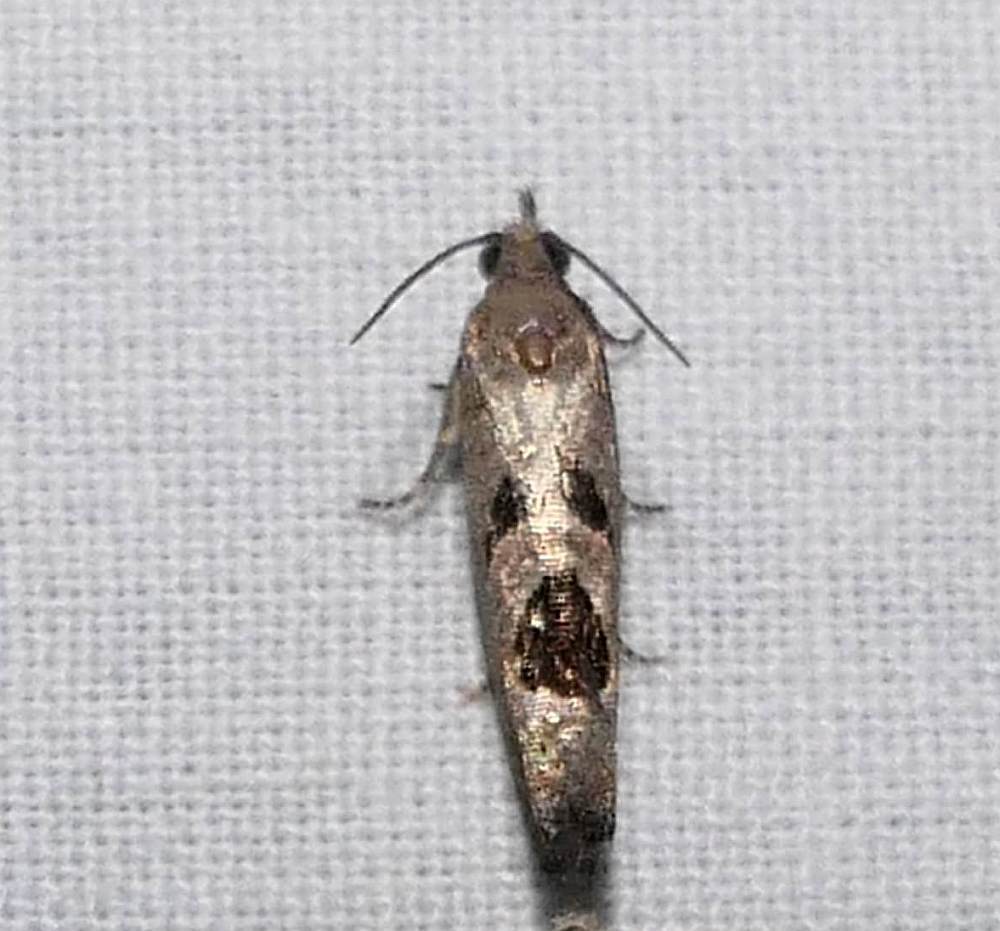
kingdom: Animalia
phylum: Arthropoda
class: Insecta
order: Lepidoptera
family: Tortricidae
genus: Eucosma
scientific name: Eucosma tomonana
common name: Aster-head eucosma moth
